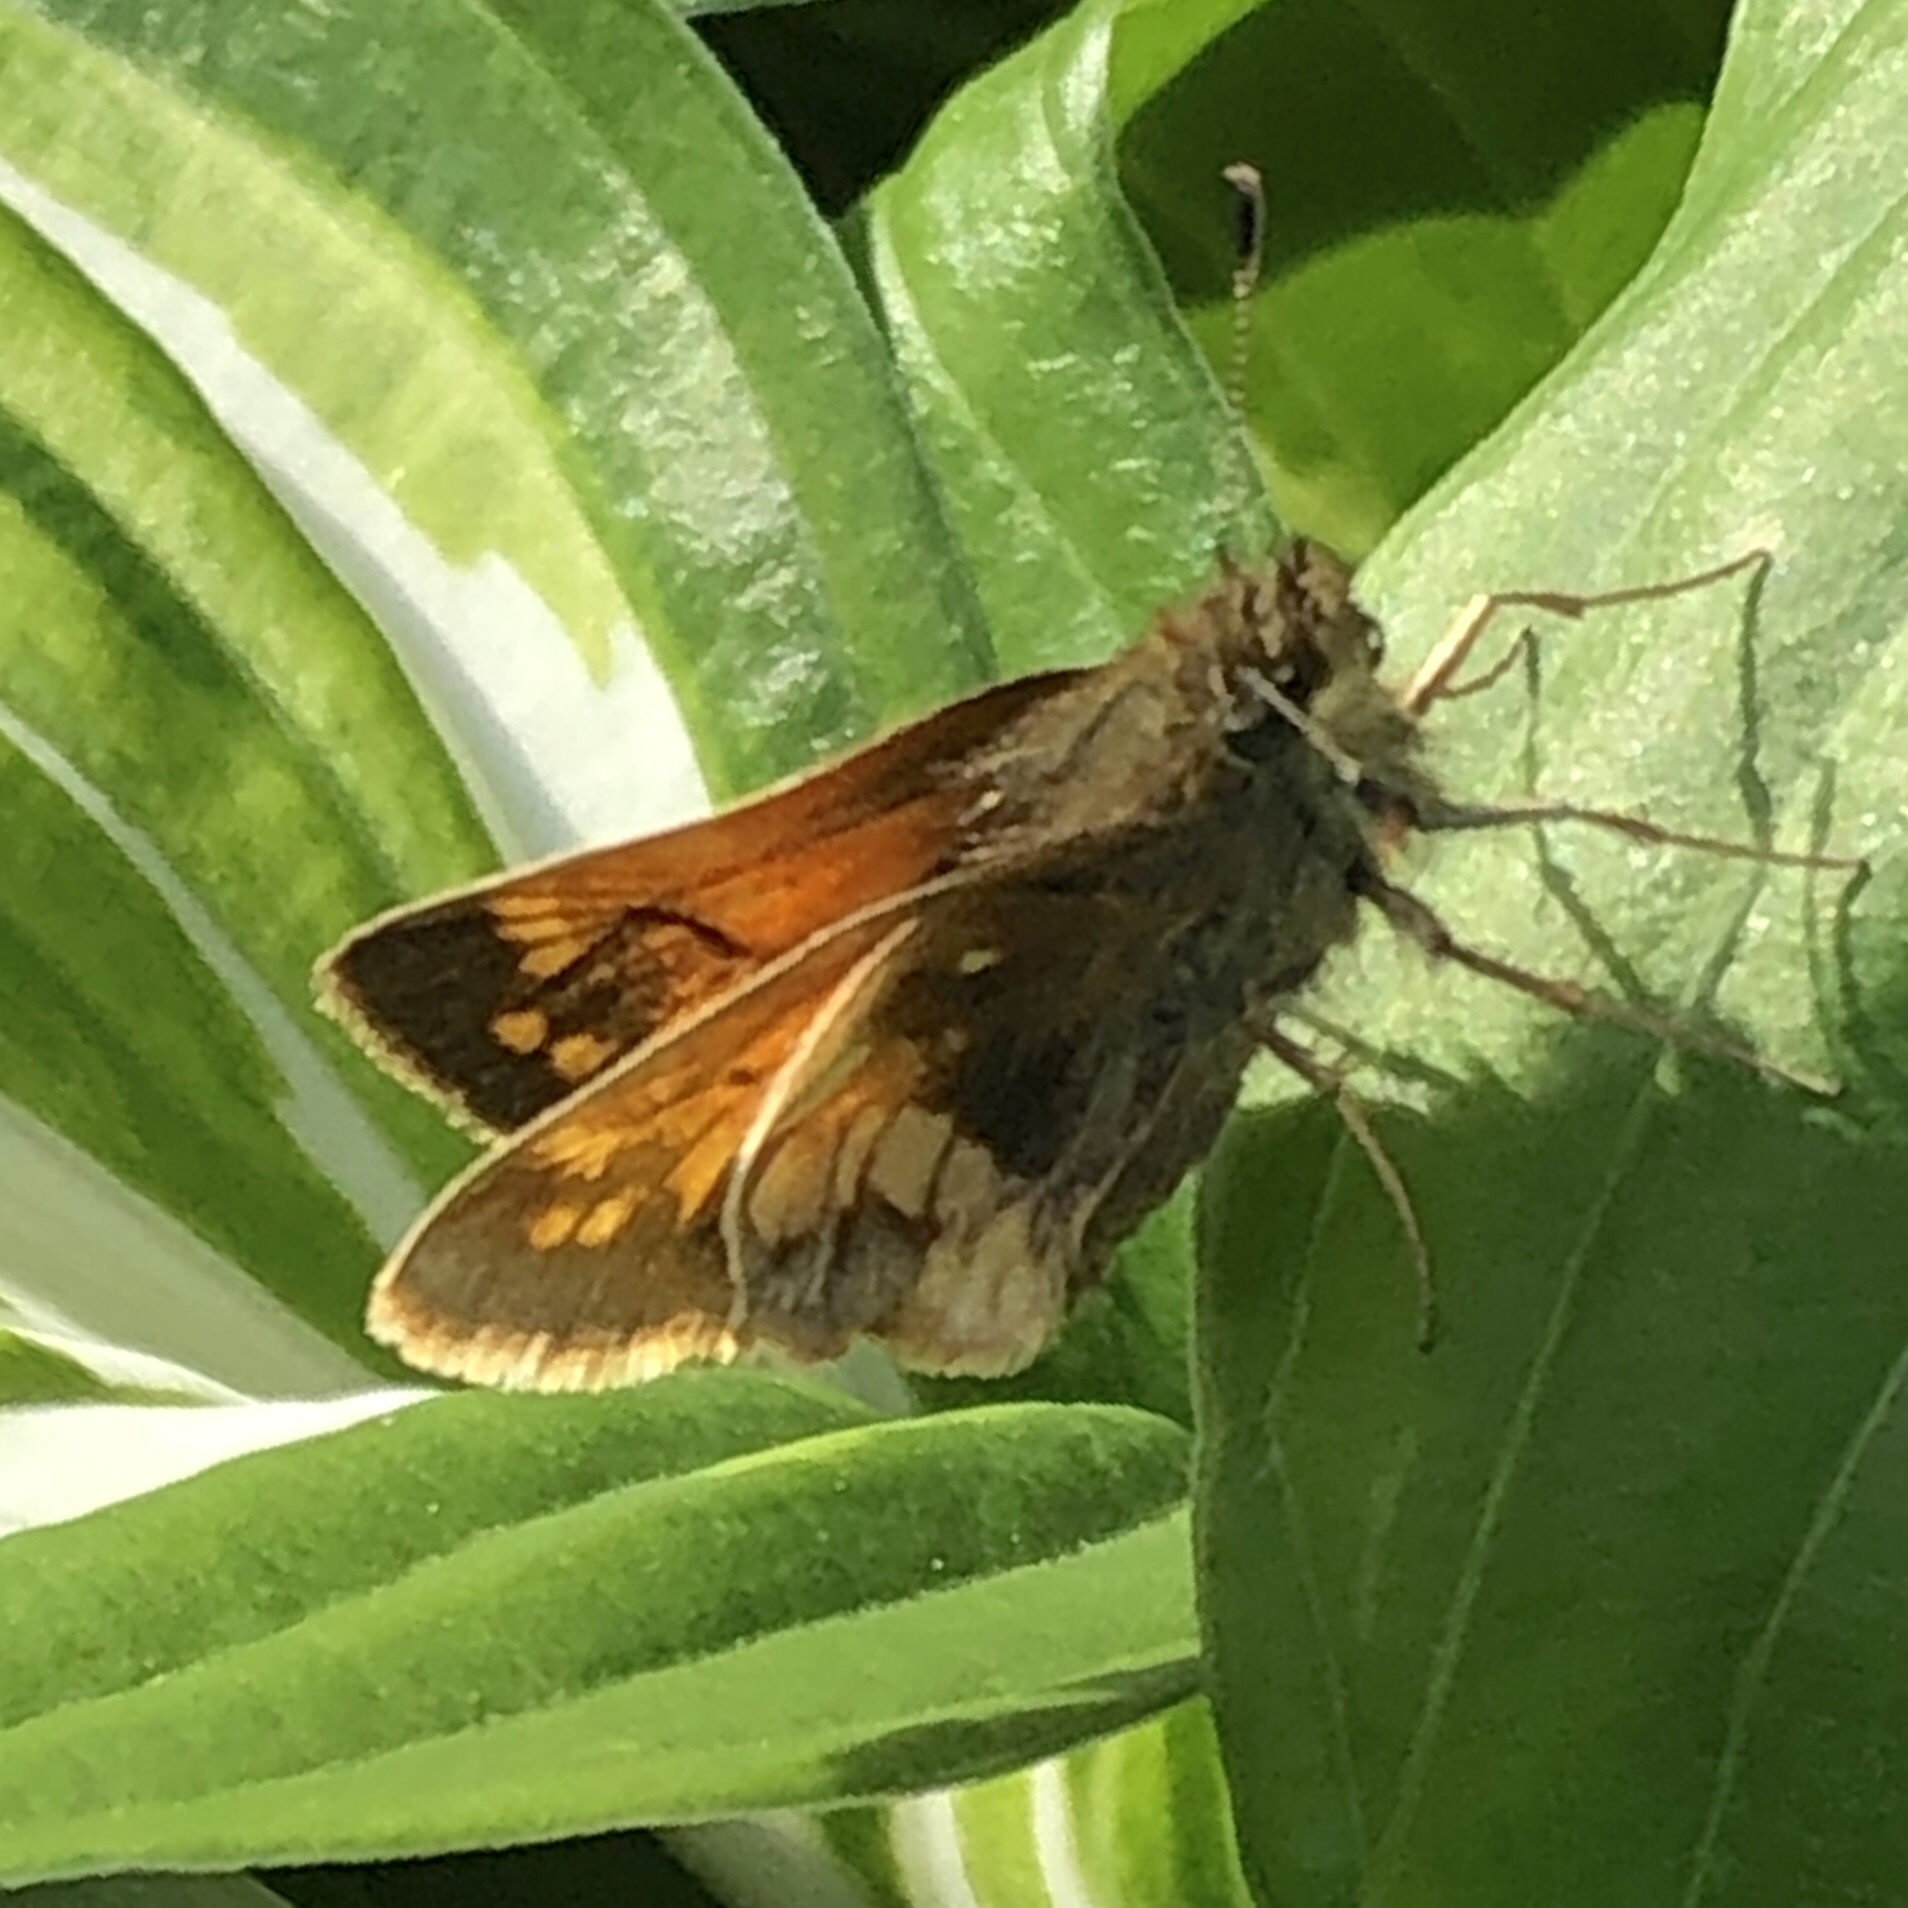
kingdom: Animalia
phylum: Arthropoda
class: Insecta
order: Lepidoptera
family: Hesperiidae
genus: Lon
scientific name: Lon hobomok
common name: Hobomok skipper
